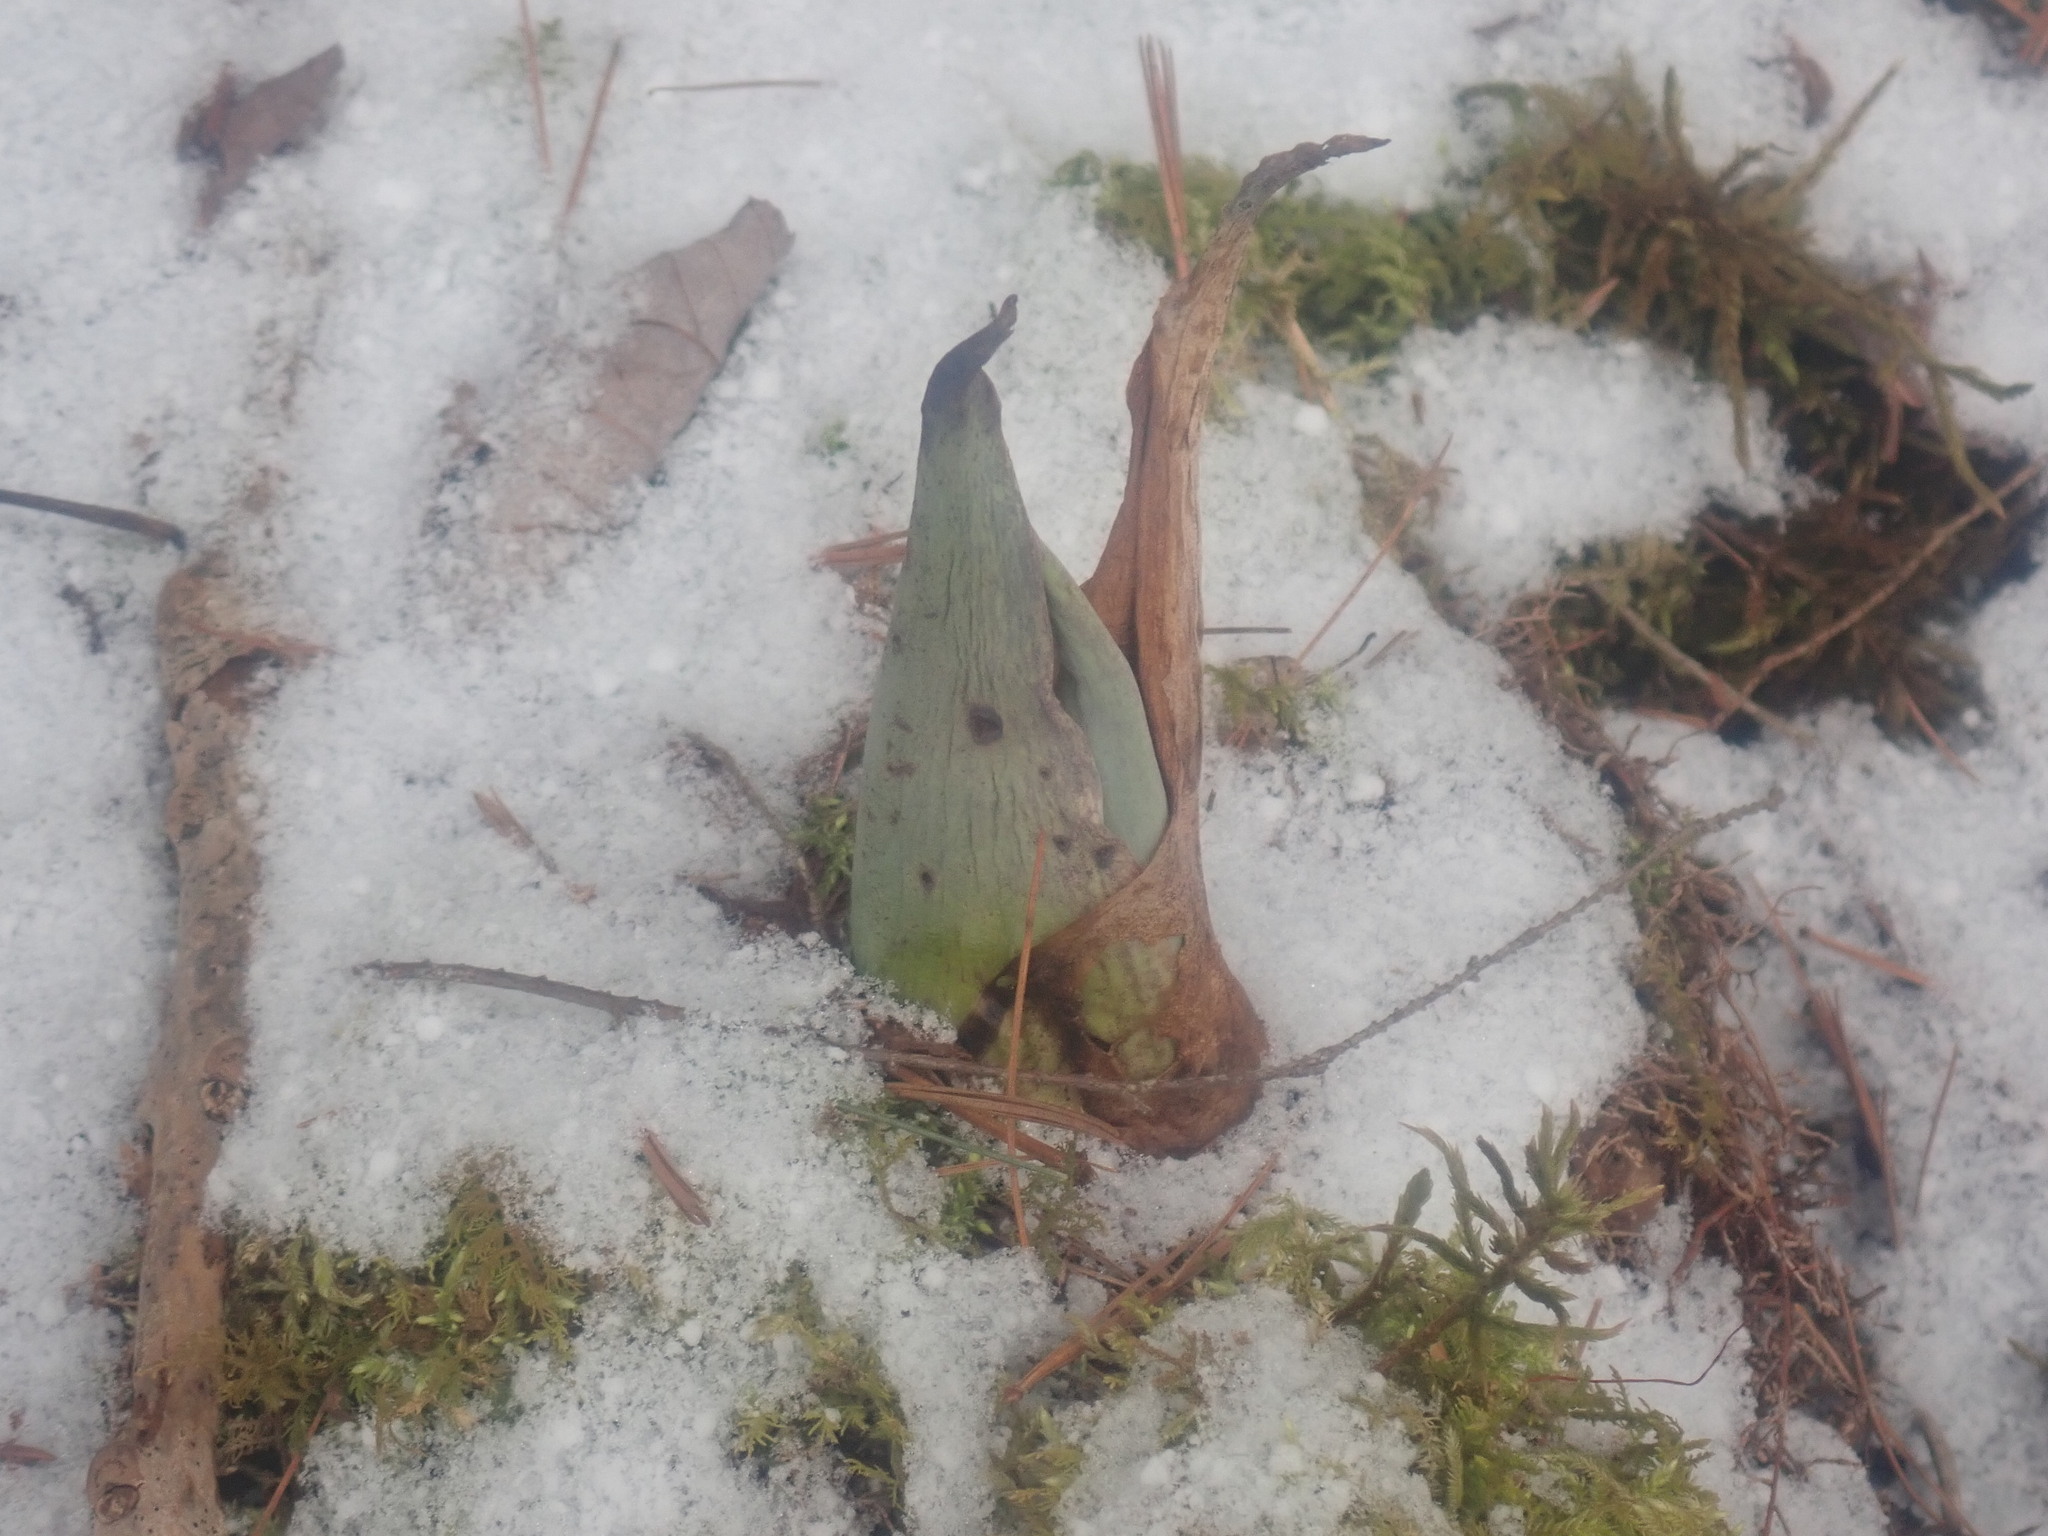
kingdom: Plantae
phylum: Tracheophyta
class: Liliopsida
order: Alismatales
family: Araceae
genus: Symplocarpus
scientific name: Symplocarpus foetidus
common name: Eastern skunk cabbage
